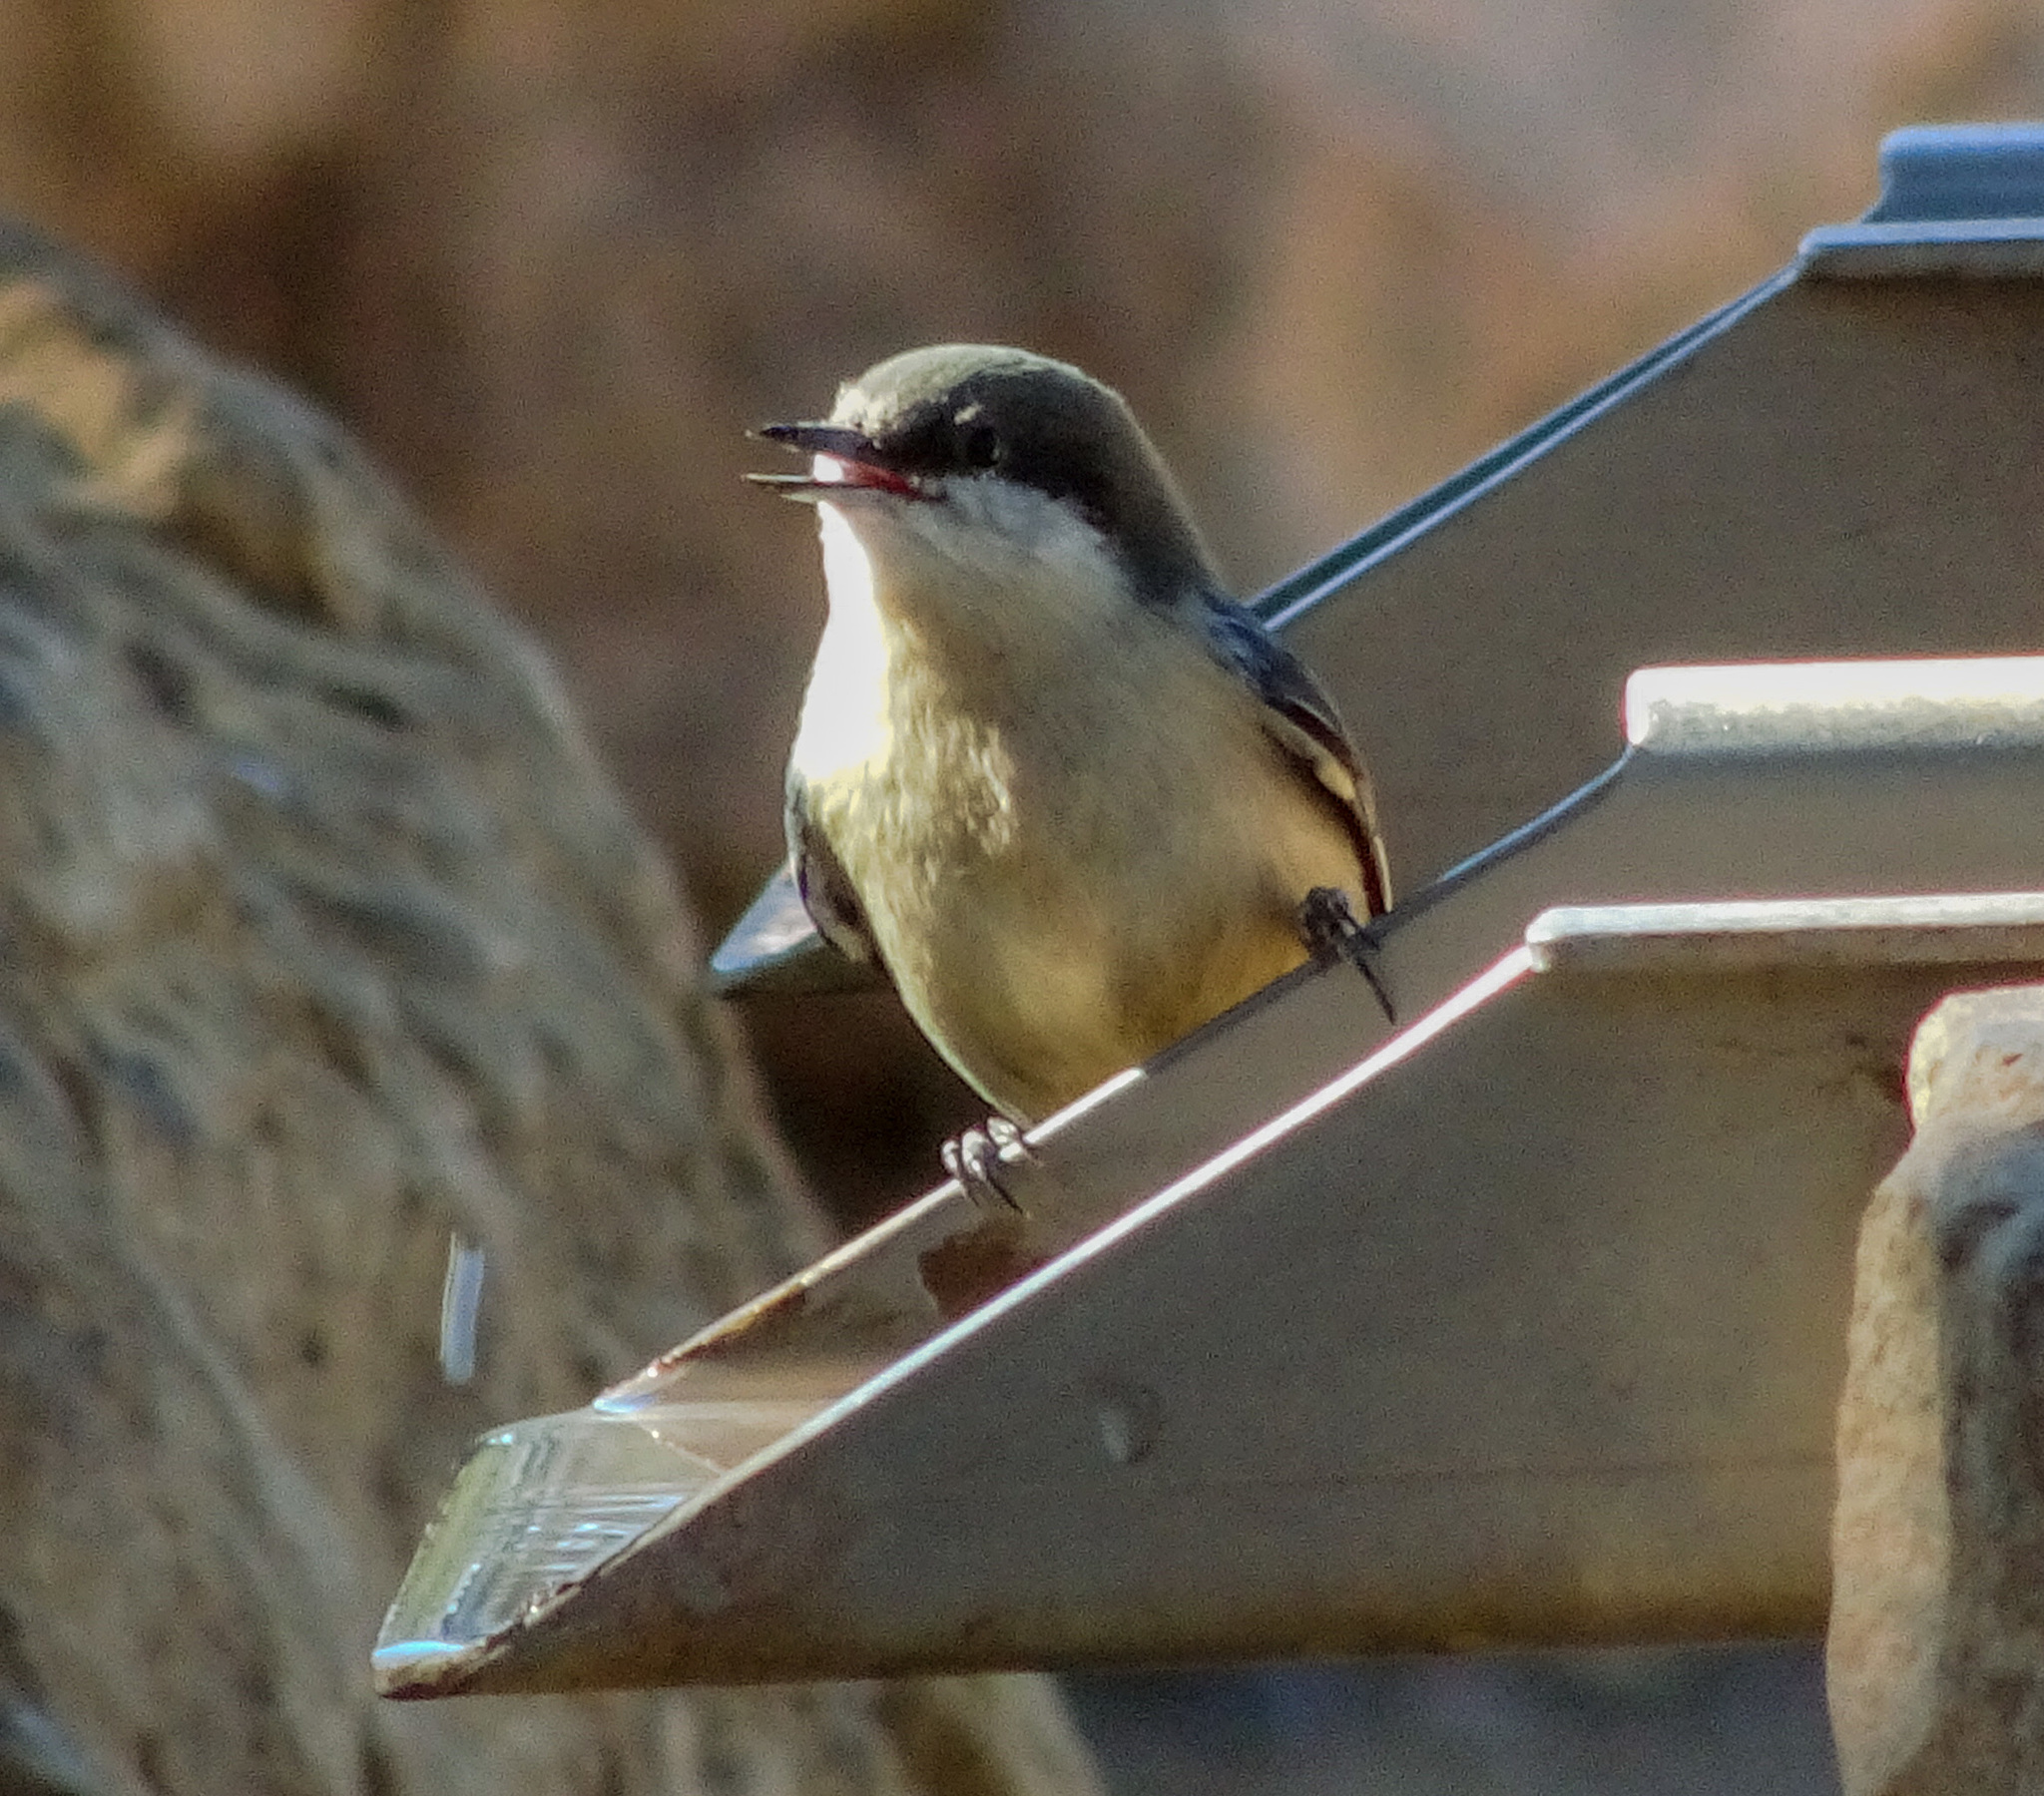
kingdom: Animalia
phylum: Chordata
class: Aves
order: Passeriformes
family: Sittidae
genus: Sitta
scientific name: Sitta pygmaea
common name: Pygmy nuthatch
